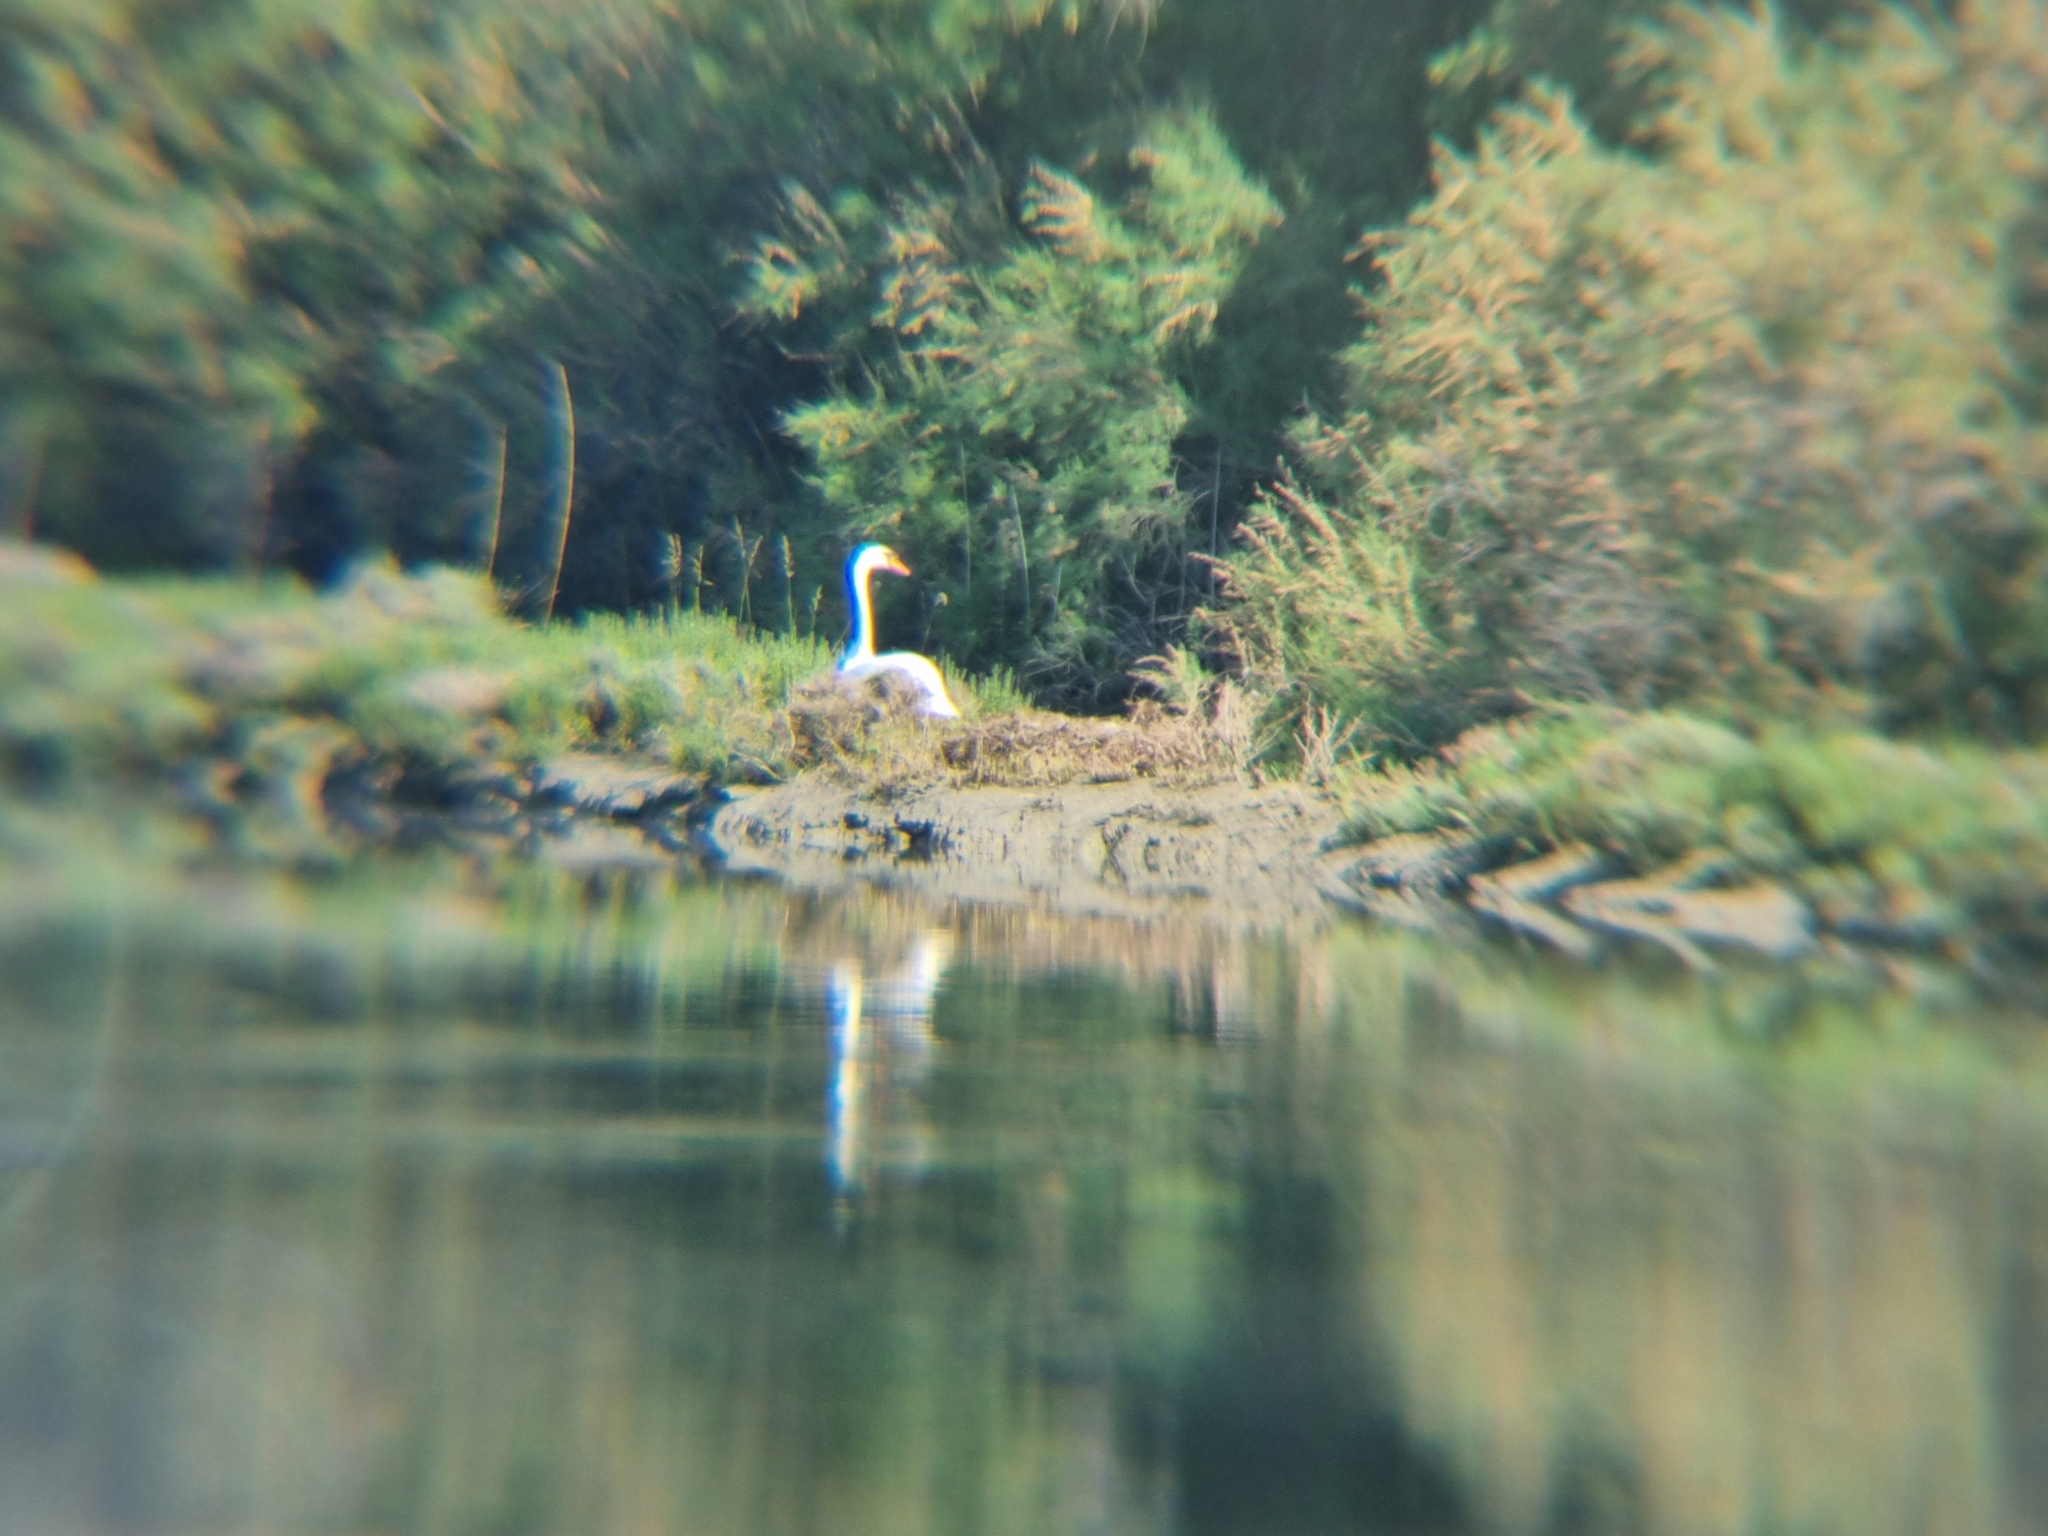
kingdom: Animalia
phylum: Chordata
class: Aves
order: Anseriformes
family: Anatidae
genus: Cygnus
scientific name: Cygnus olor
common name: Mute swan
